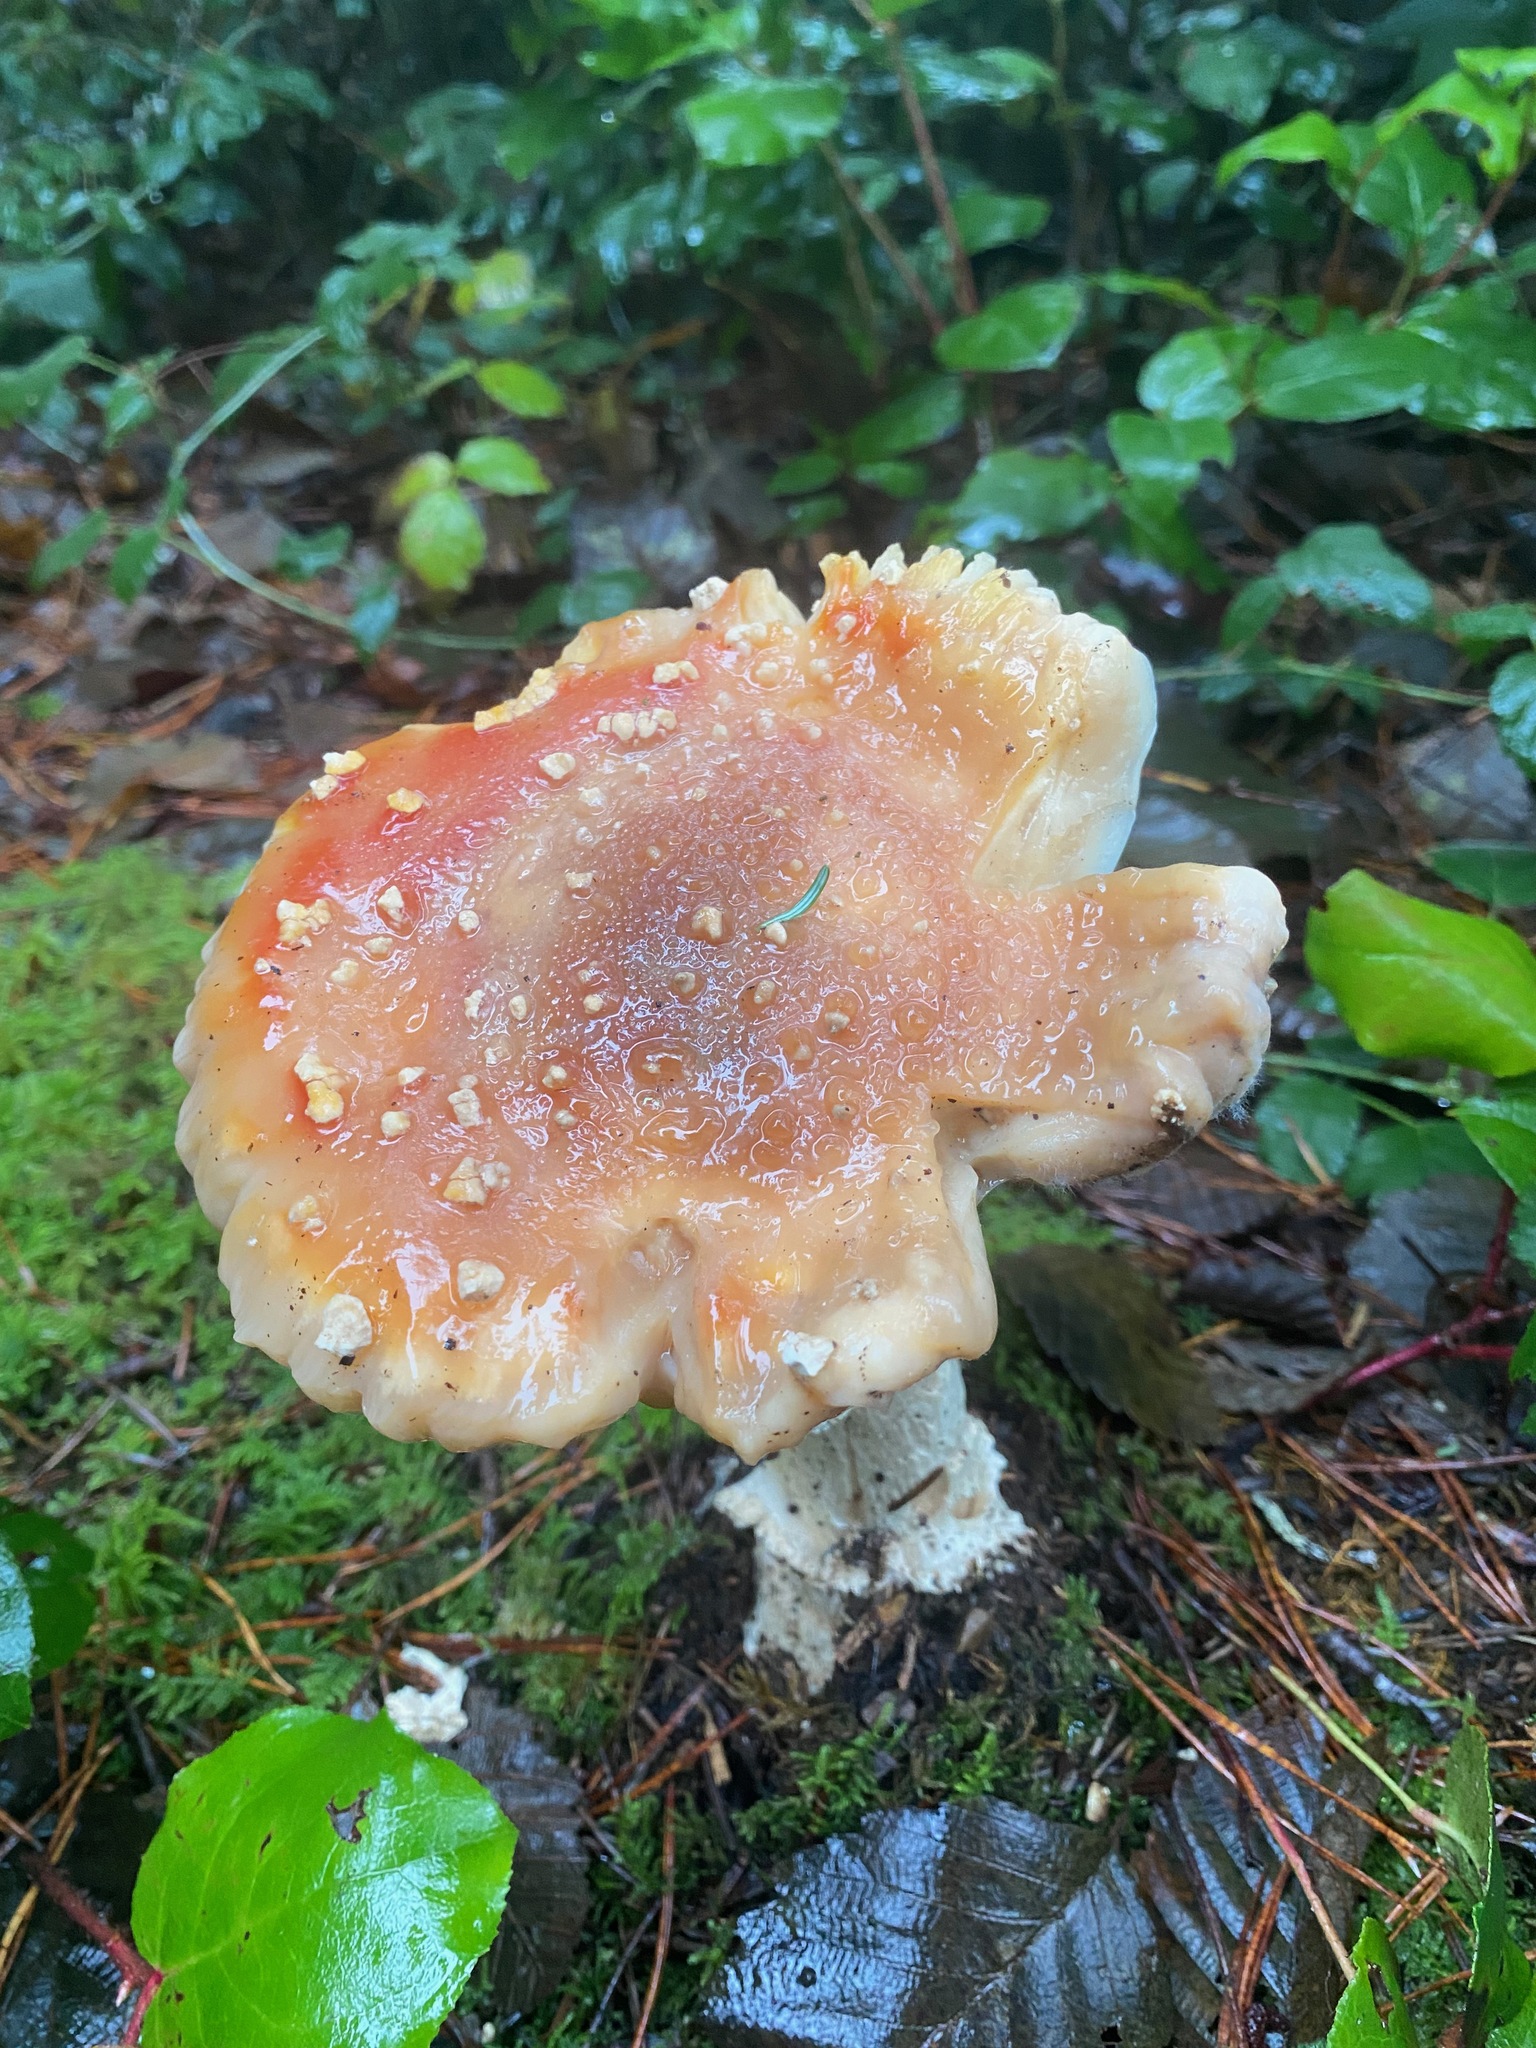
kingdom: Fungi
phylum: Basidiomycota
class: Agaricomycetes
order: Agaricales
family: Amanitaceae
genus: Amanita
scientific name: Amanita muscaria
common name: Fly agaric
